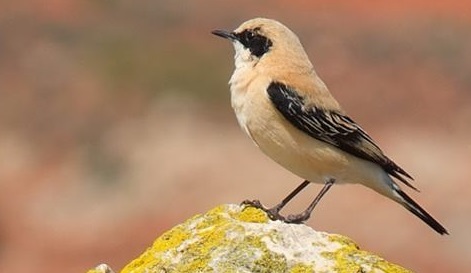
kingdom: Animalia
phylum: Chordata
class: Aves
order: Passeriformes
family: Muscicapidae
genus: Oenanthe
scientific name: Oenanthe hispanica
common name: Black-eared wheatear
